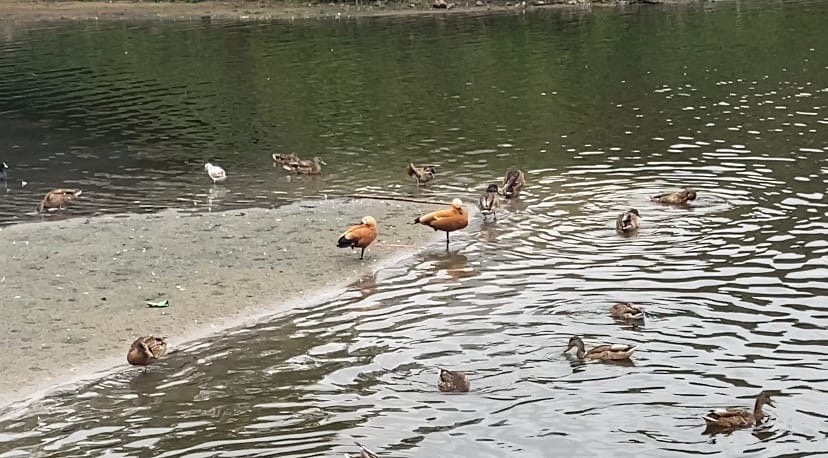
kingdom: Animalia
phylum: Chordata
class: Aves
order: Anseriformes
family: Anatidae
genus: Tadorna
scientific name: Tadorna ferruginea
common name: Ruddy shelduck
